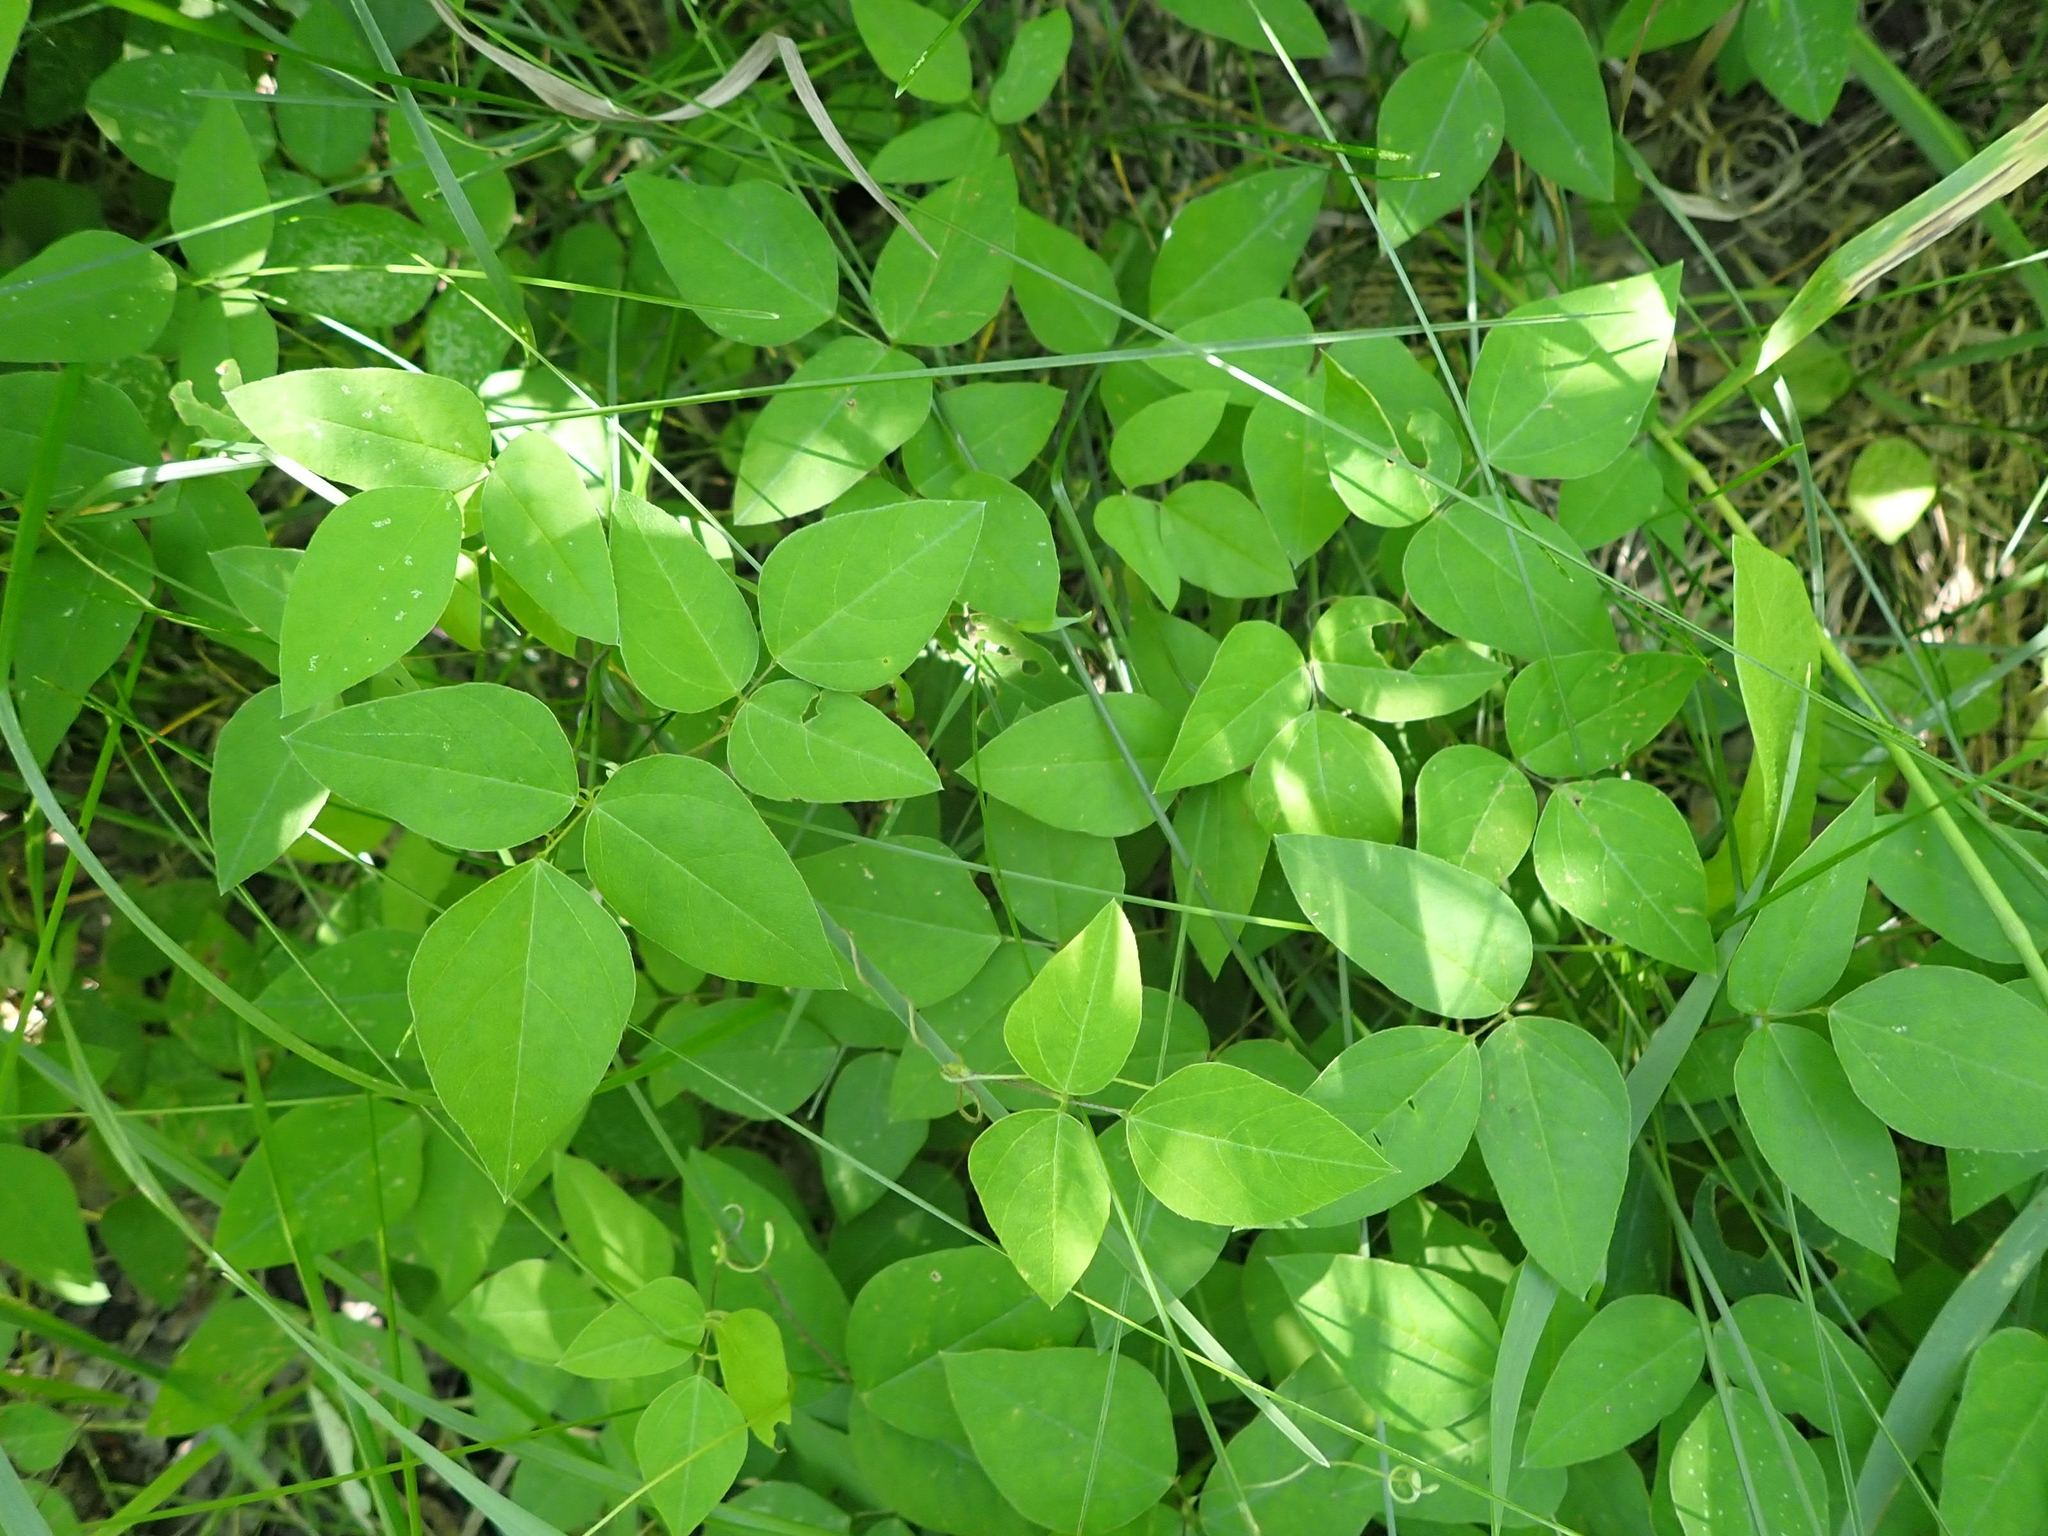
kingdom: Plantae
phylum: Tracheophyta
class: Magnoliopsida
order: Fabales
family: Fabaceae
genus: Amphicarpaea
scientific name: Amphicarpaea bracteata
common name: American hog peanut
